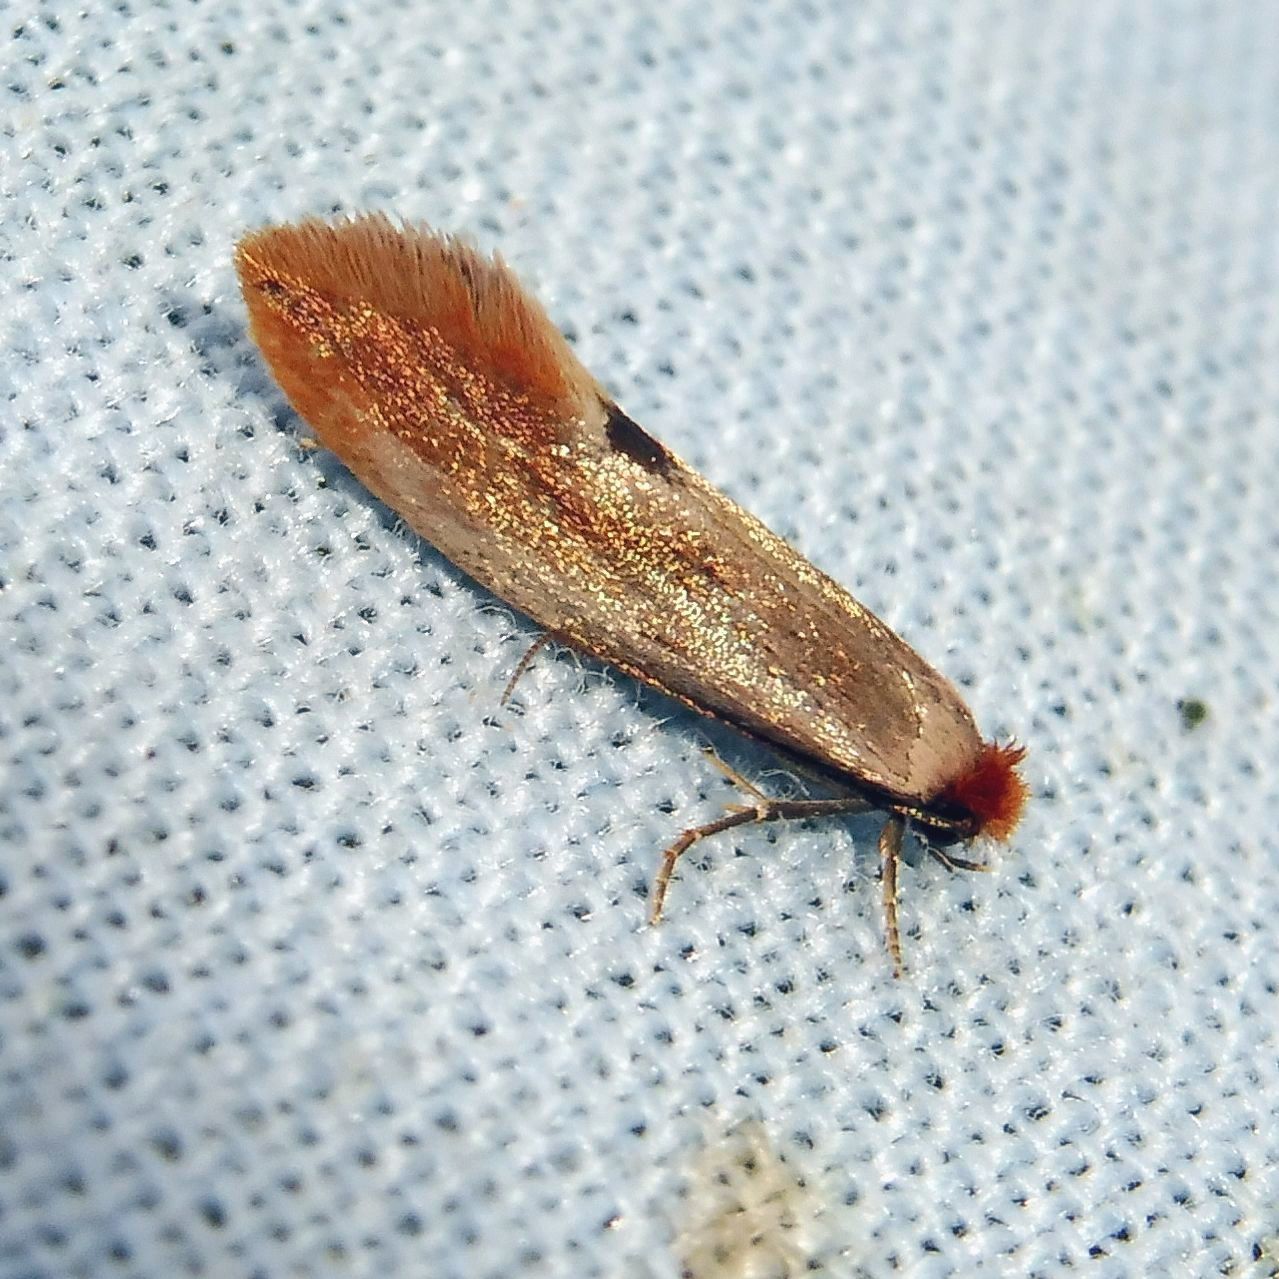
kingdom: Animalia
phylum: Arthropoda
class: Insecta
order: Lepidoptera
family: Tineidae
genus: Tinea
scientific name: Tinea semifulvella
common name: Fulvous clothes
